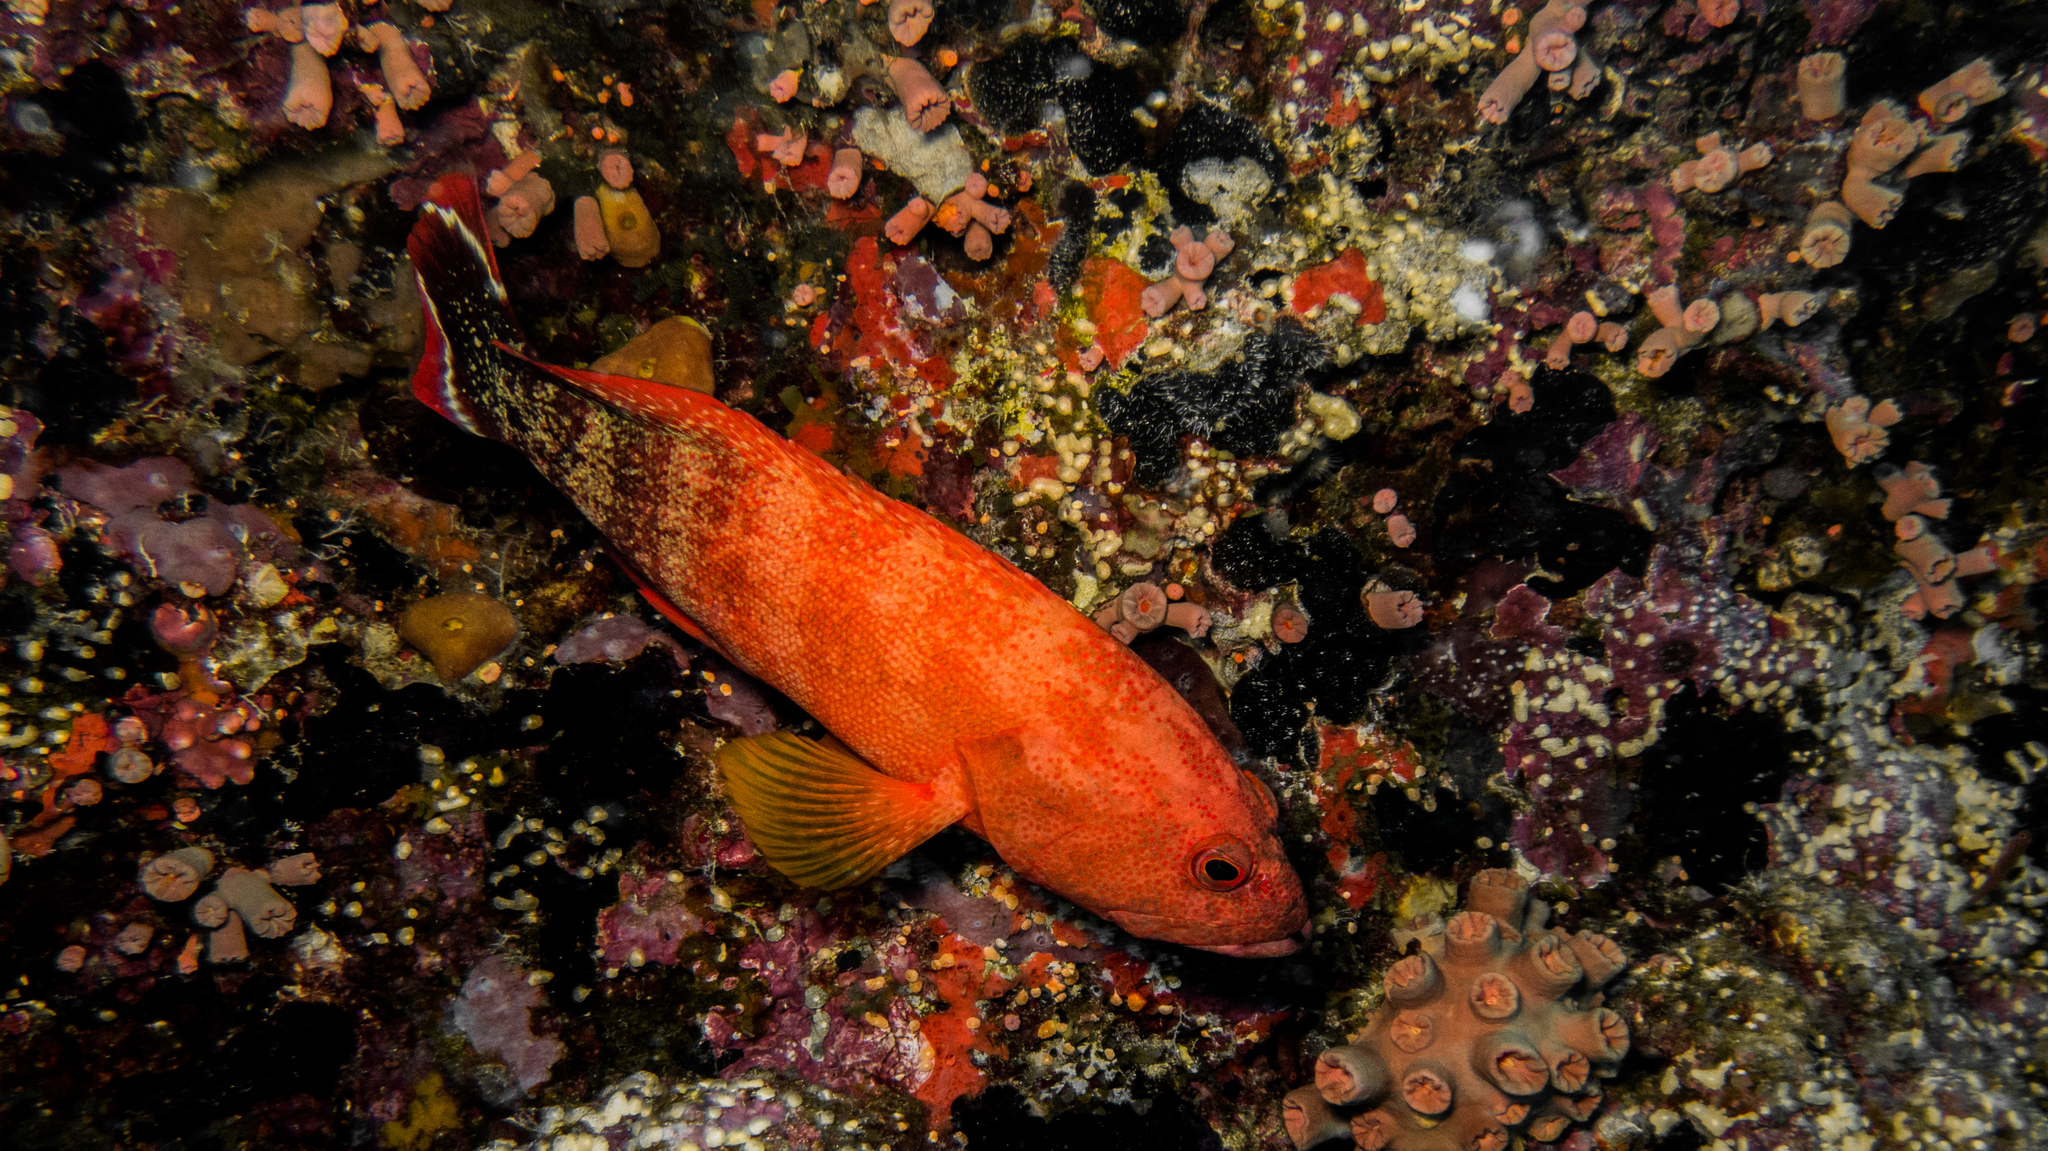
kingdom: Animalia
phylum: Chordata
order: Perciformes
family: Serranidae
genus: Cephalopholis
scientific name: Cephalopholis urodeta
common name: Darkfin hind
